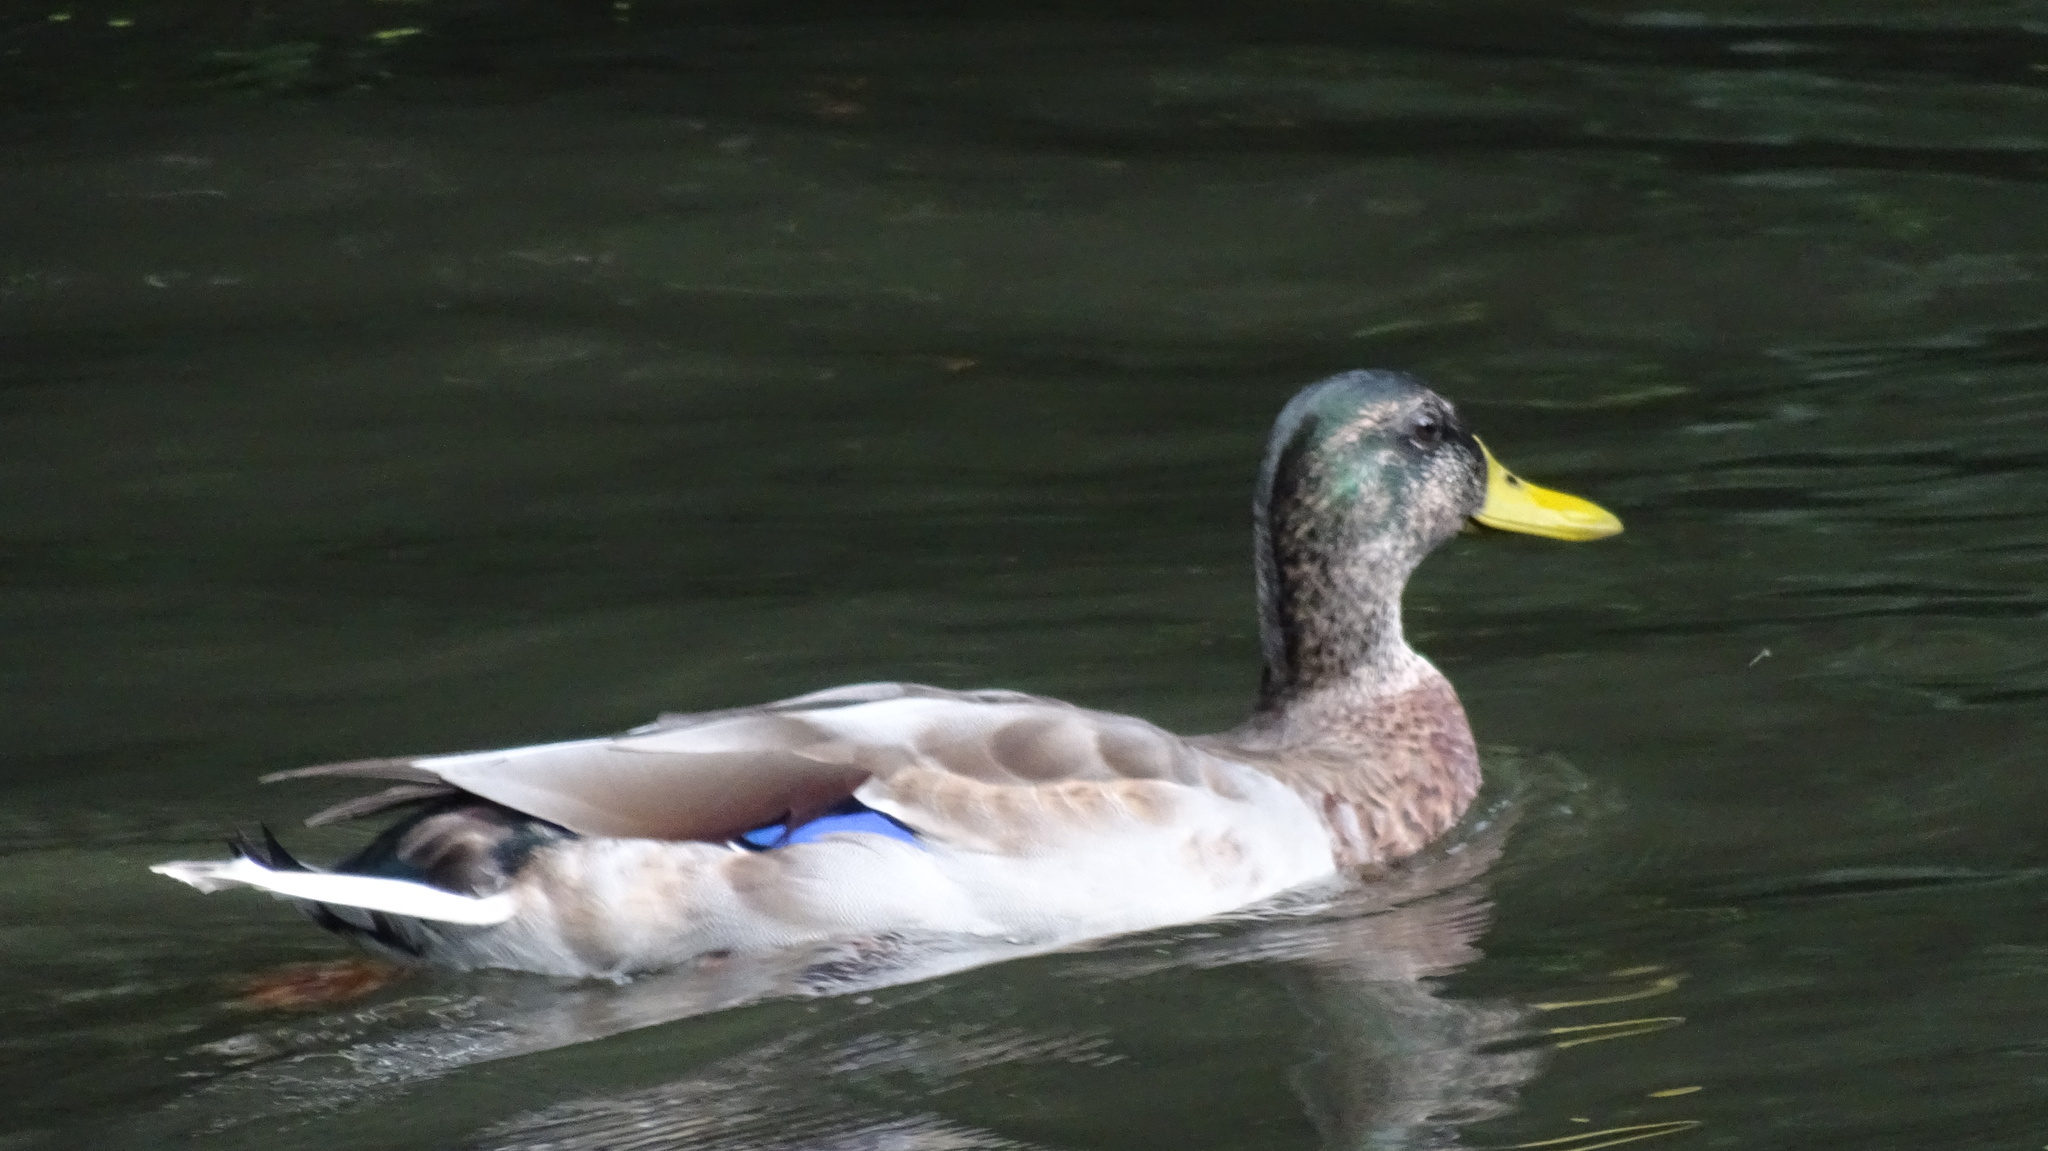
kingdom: Animalia
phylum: Chordata
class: Aves
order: Anseriformes
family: Anatidae
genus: Anas
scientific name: Anas platyrhynchos
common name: Mallard
